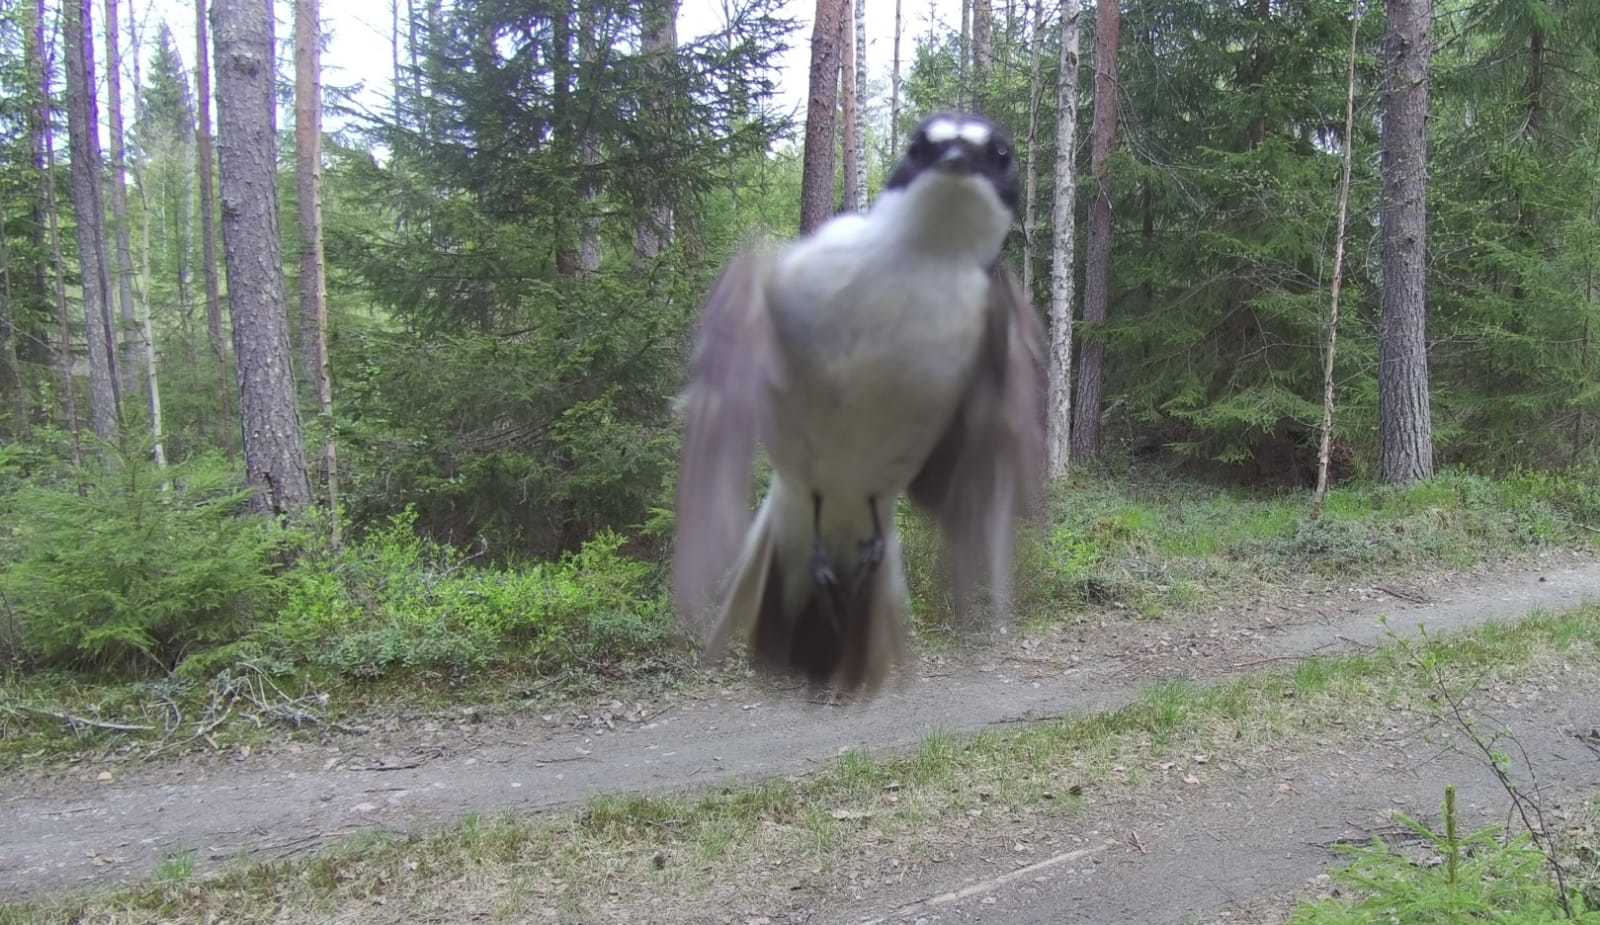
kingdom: Animalia
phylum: Chordata
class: Aves
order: Passeriformes
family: Muscicapidae
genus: Ficedula
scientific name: Ficedula hypoleuca
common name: European pied flycatcher
